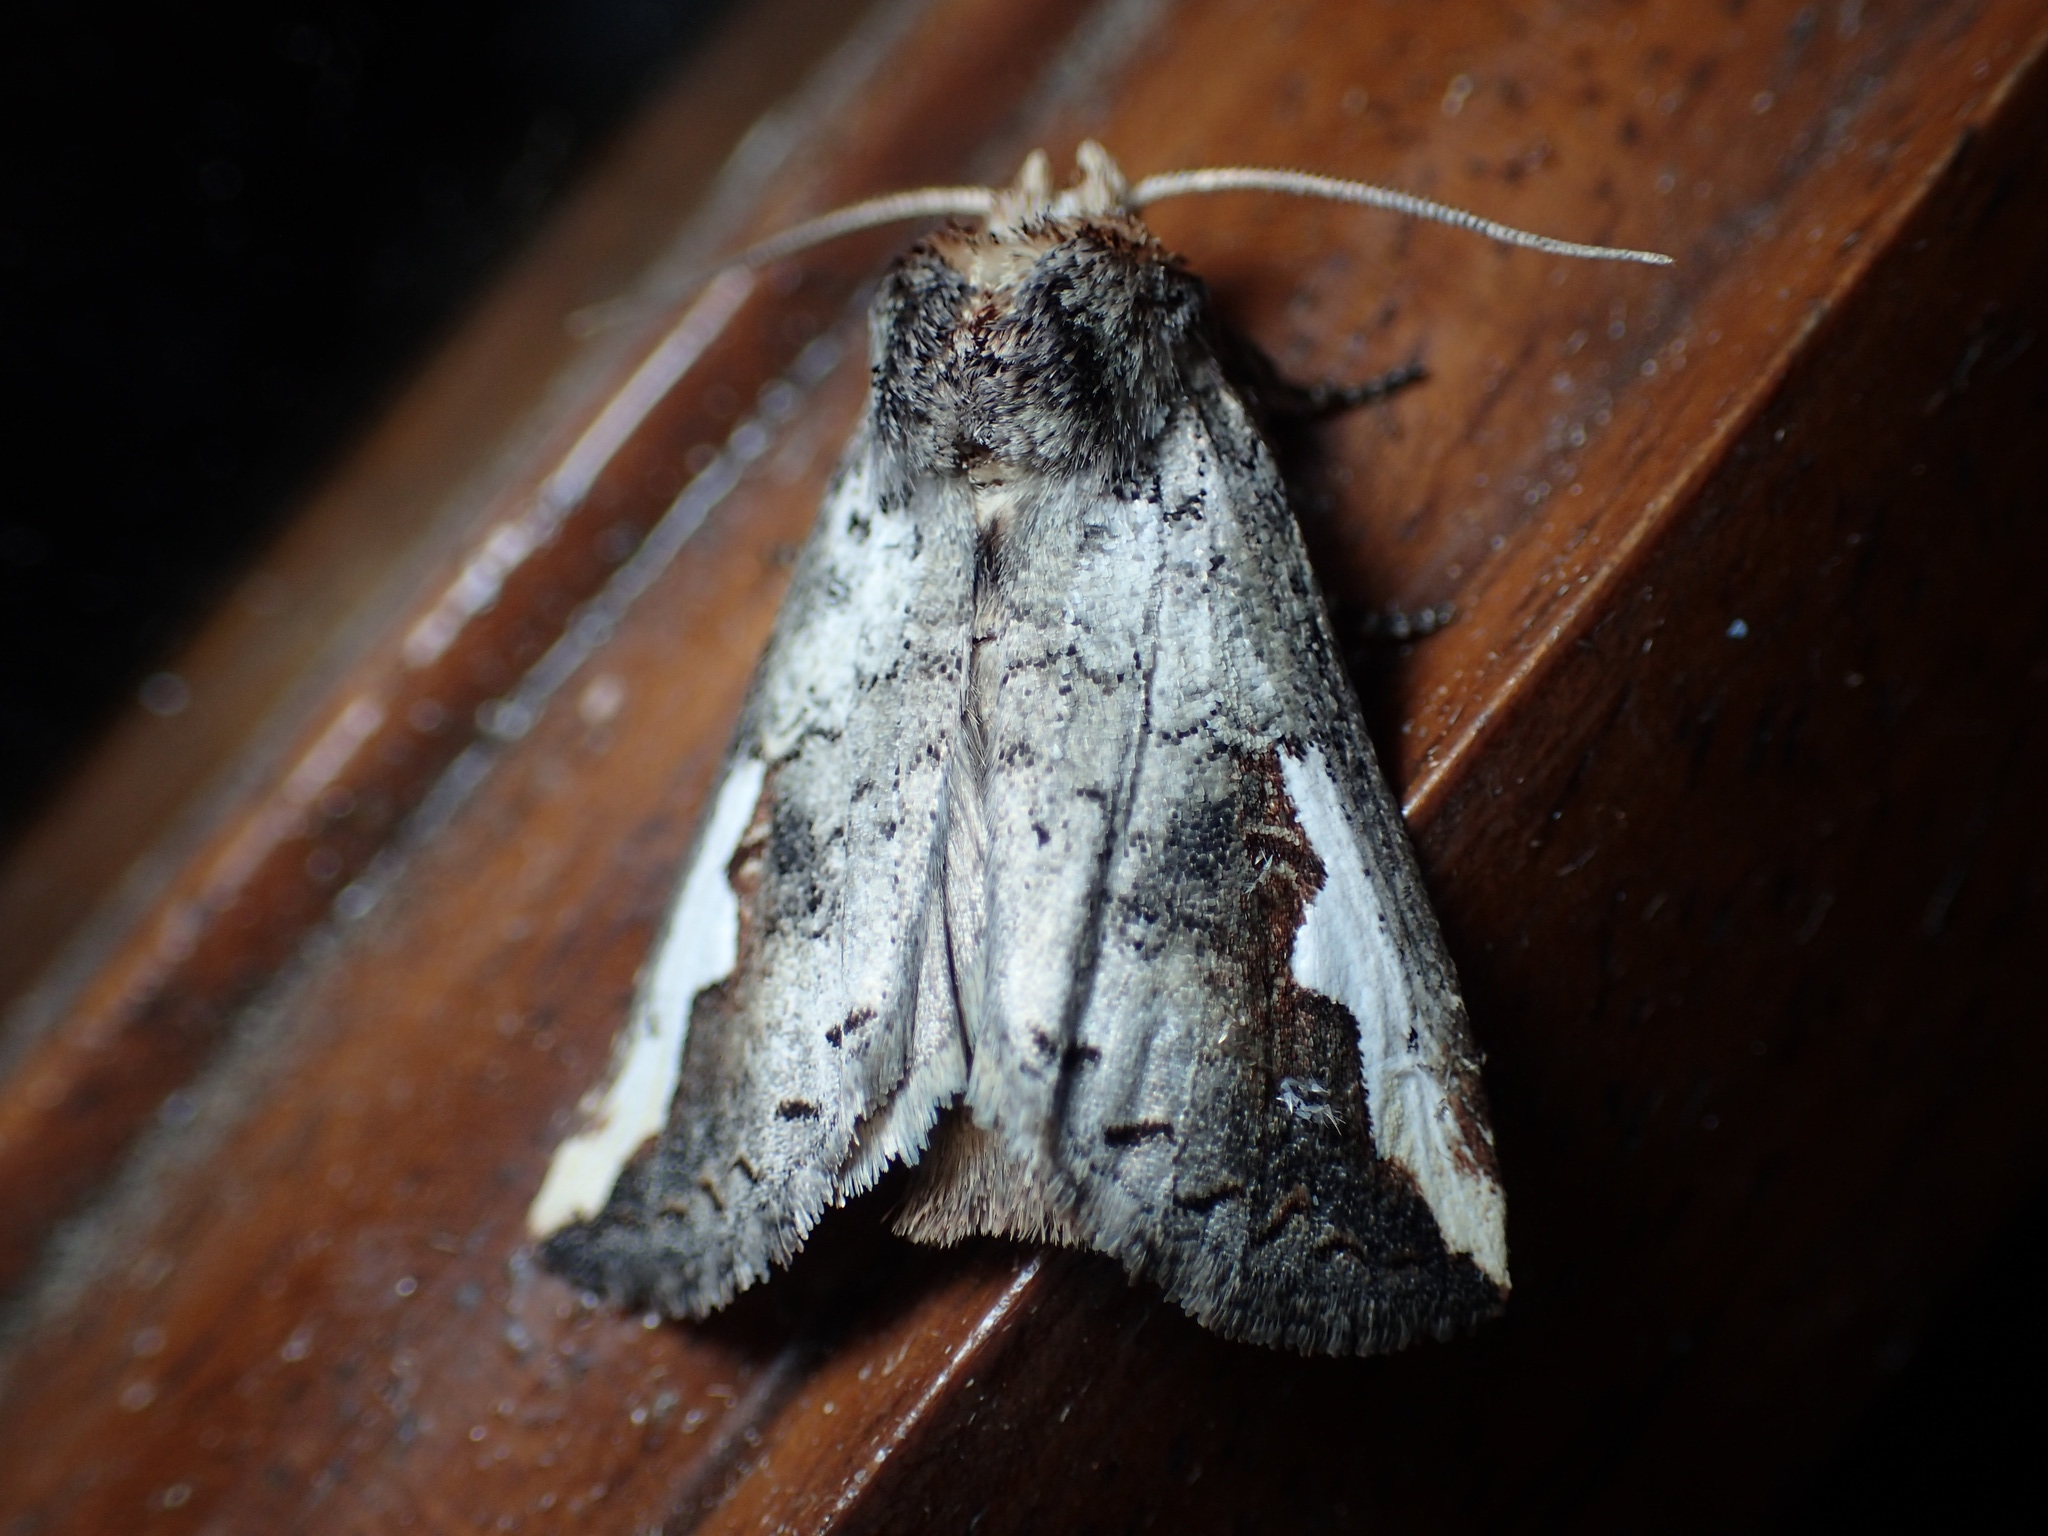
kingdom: Animalia
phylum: Arthropoda
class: Insecta
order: Lepidoptera
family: Notodontidae
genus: Symmerista
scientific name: Symmerista
